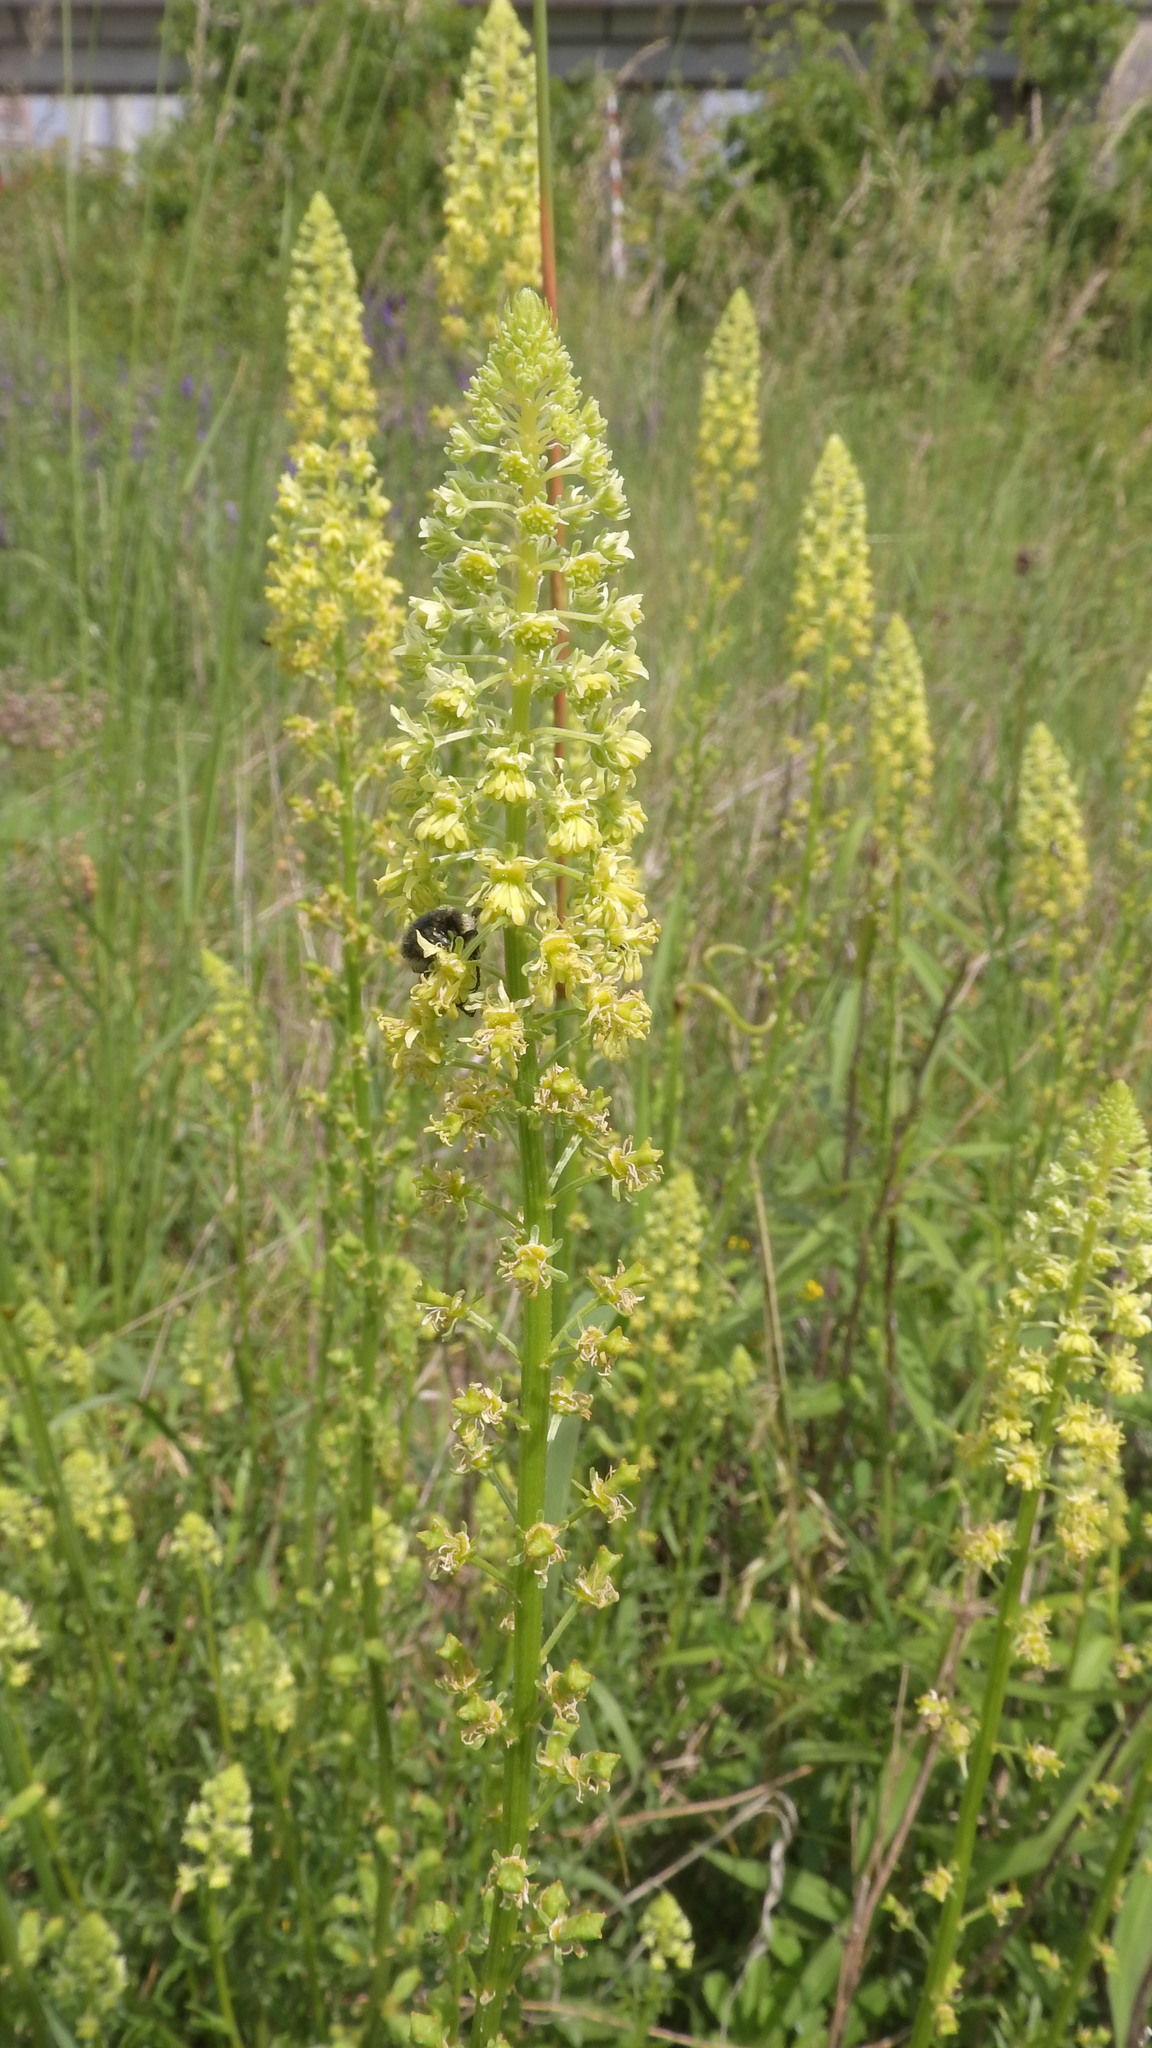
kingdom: Plantae
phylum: Tracheophyta
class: Magnoliopsida
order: Brassicales
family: Resedaceae
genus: Reseda
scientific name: Reseda lutea
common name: Wild mignonette
